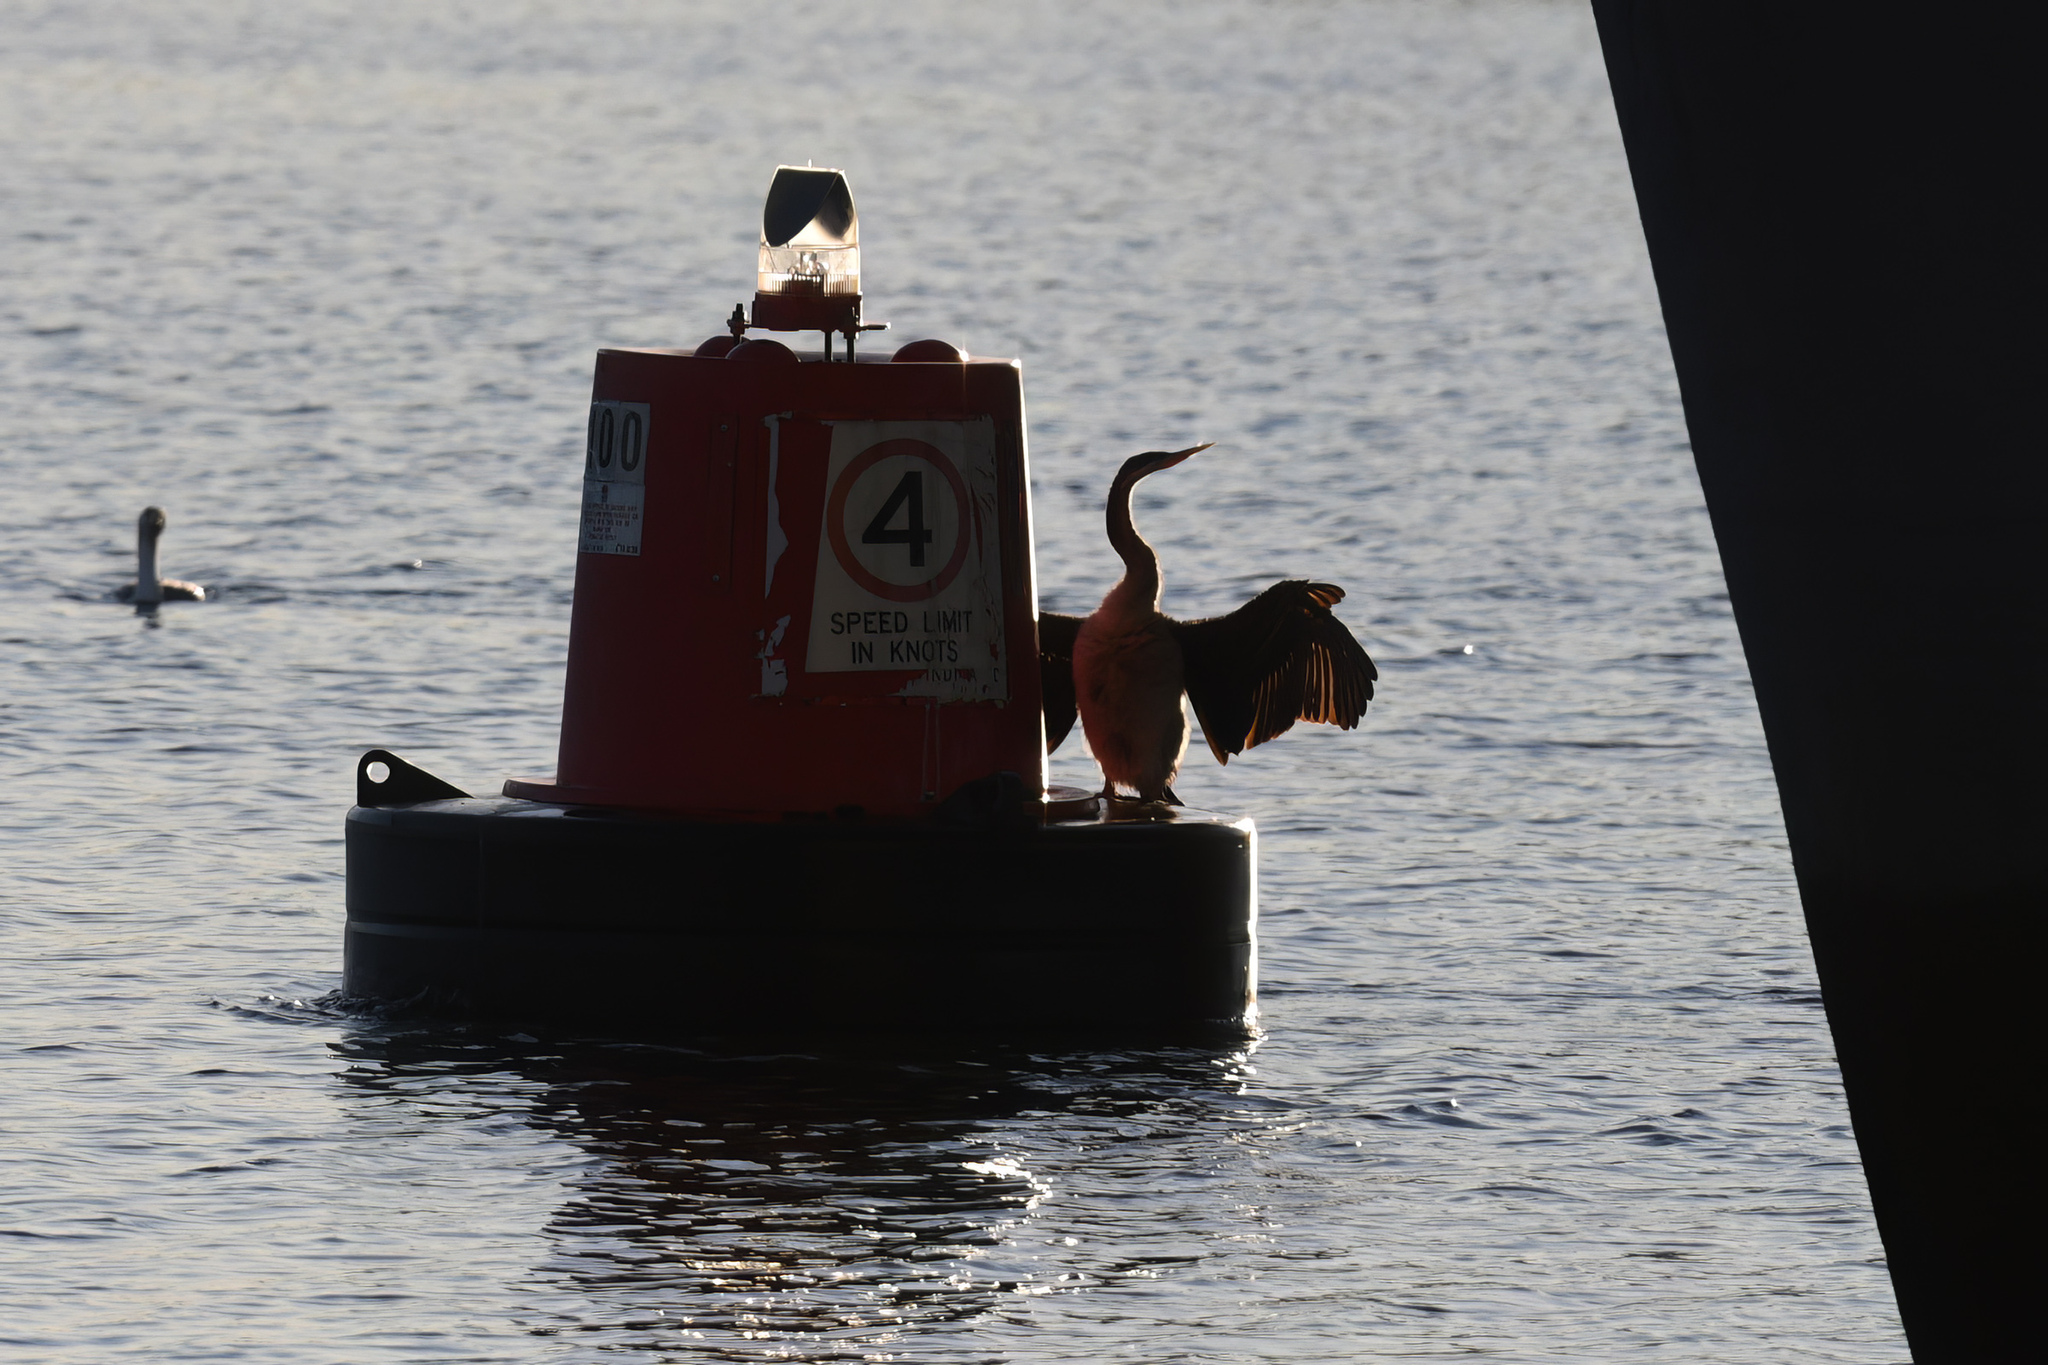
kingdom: Animalia
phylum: Chordata
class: Aves
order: Suliformes
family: Anhingidae
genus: Anhinga
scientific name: Anhinga novaehollandiae
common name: Australasian darter
